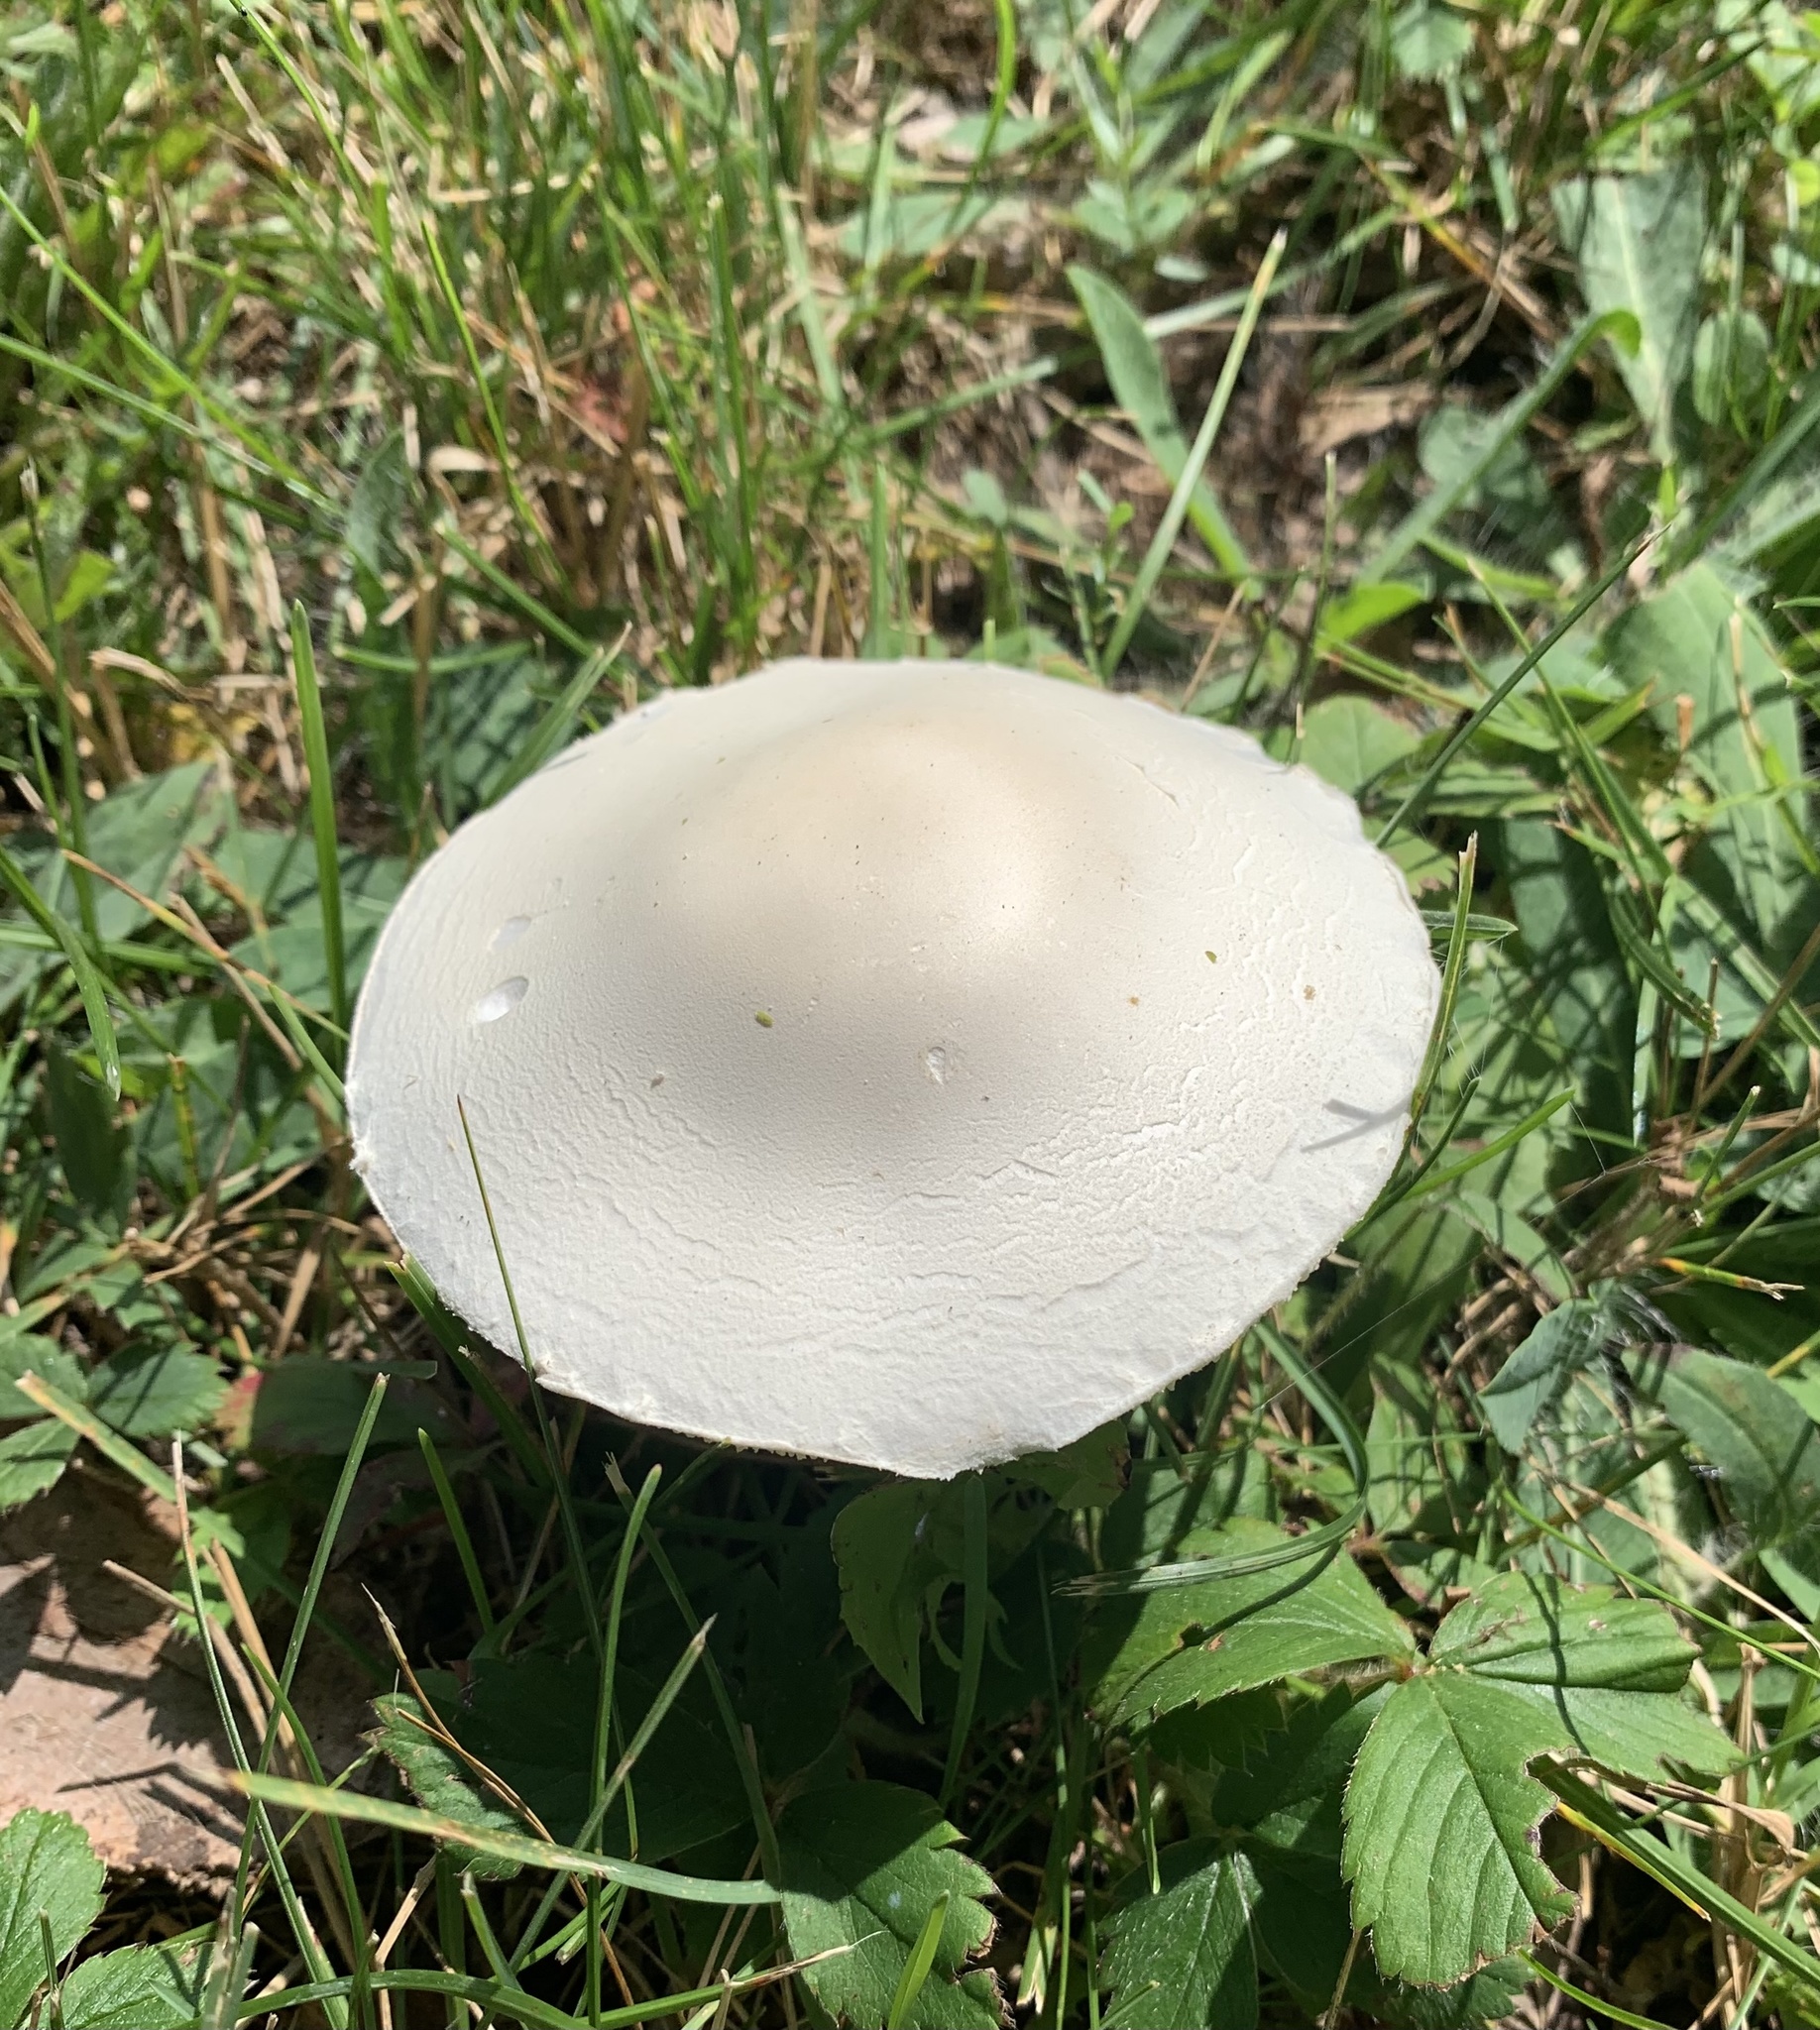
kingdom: Fungi
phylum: Basidiomycota
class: Agaricomycetes
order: Agaricales
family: Agaricaceae
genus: Leucoagaricus
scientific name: Leucoagaricus leucothites
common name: White dapperling
